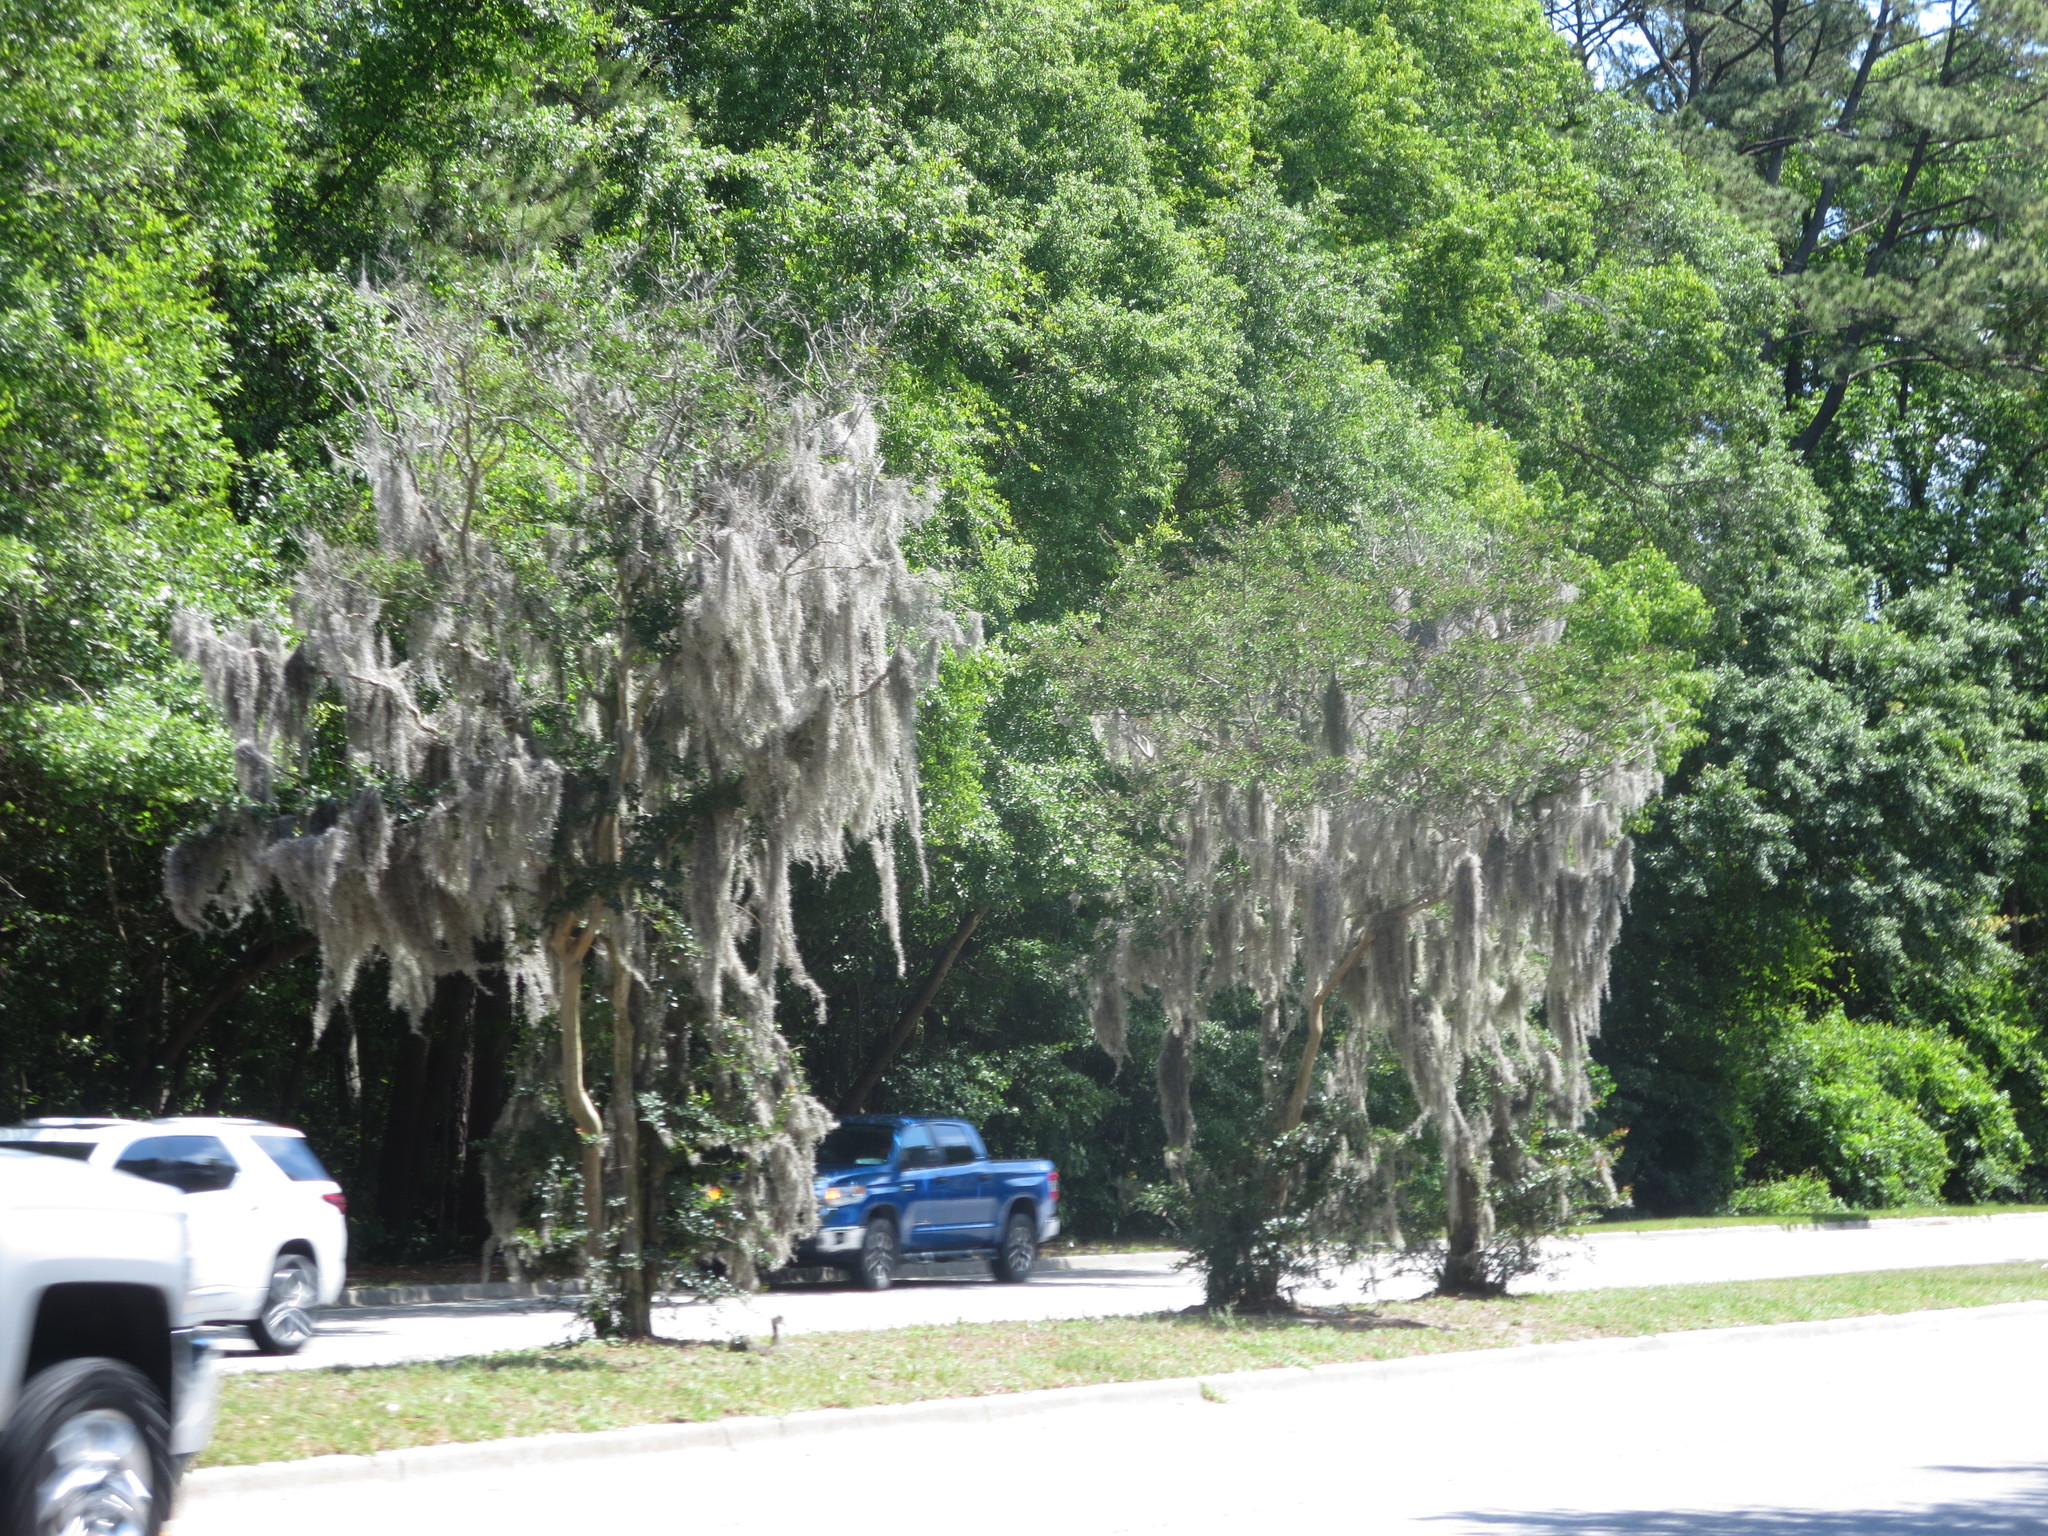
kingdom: Plantae
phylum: Tracheophyta
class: Liliopsida
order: Poales
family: Bromeliaceae
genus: Tillandsia
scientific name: Tillandsia usneoides
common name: Spanish moss
